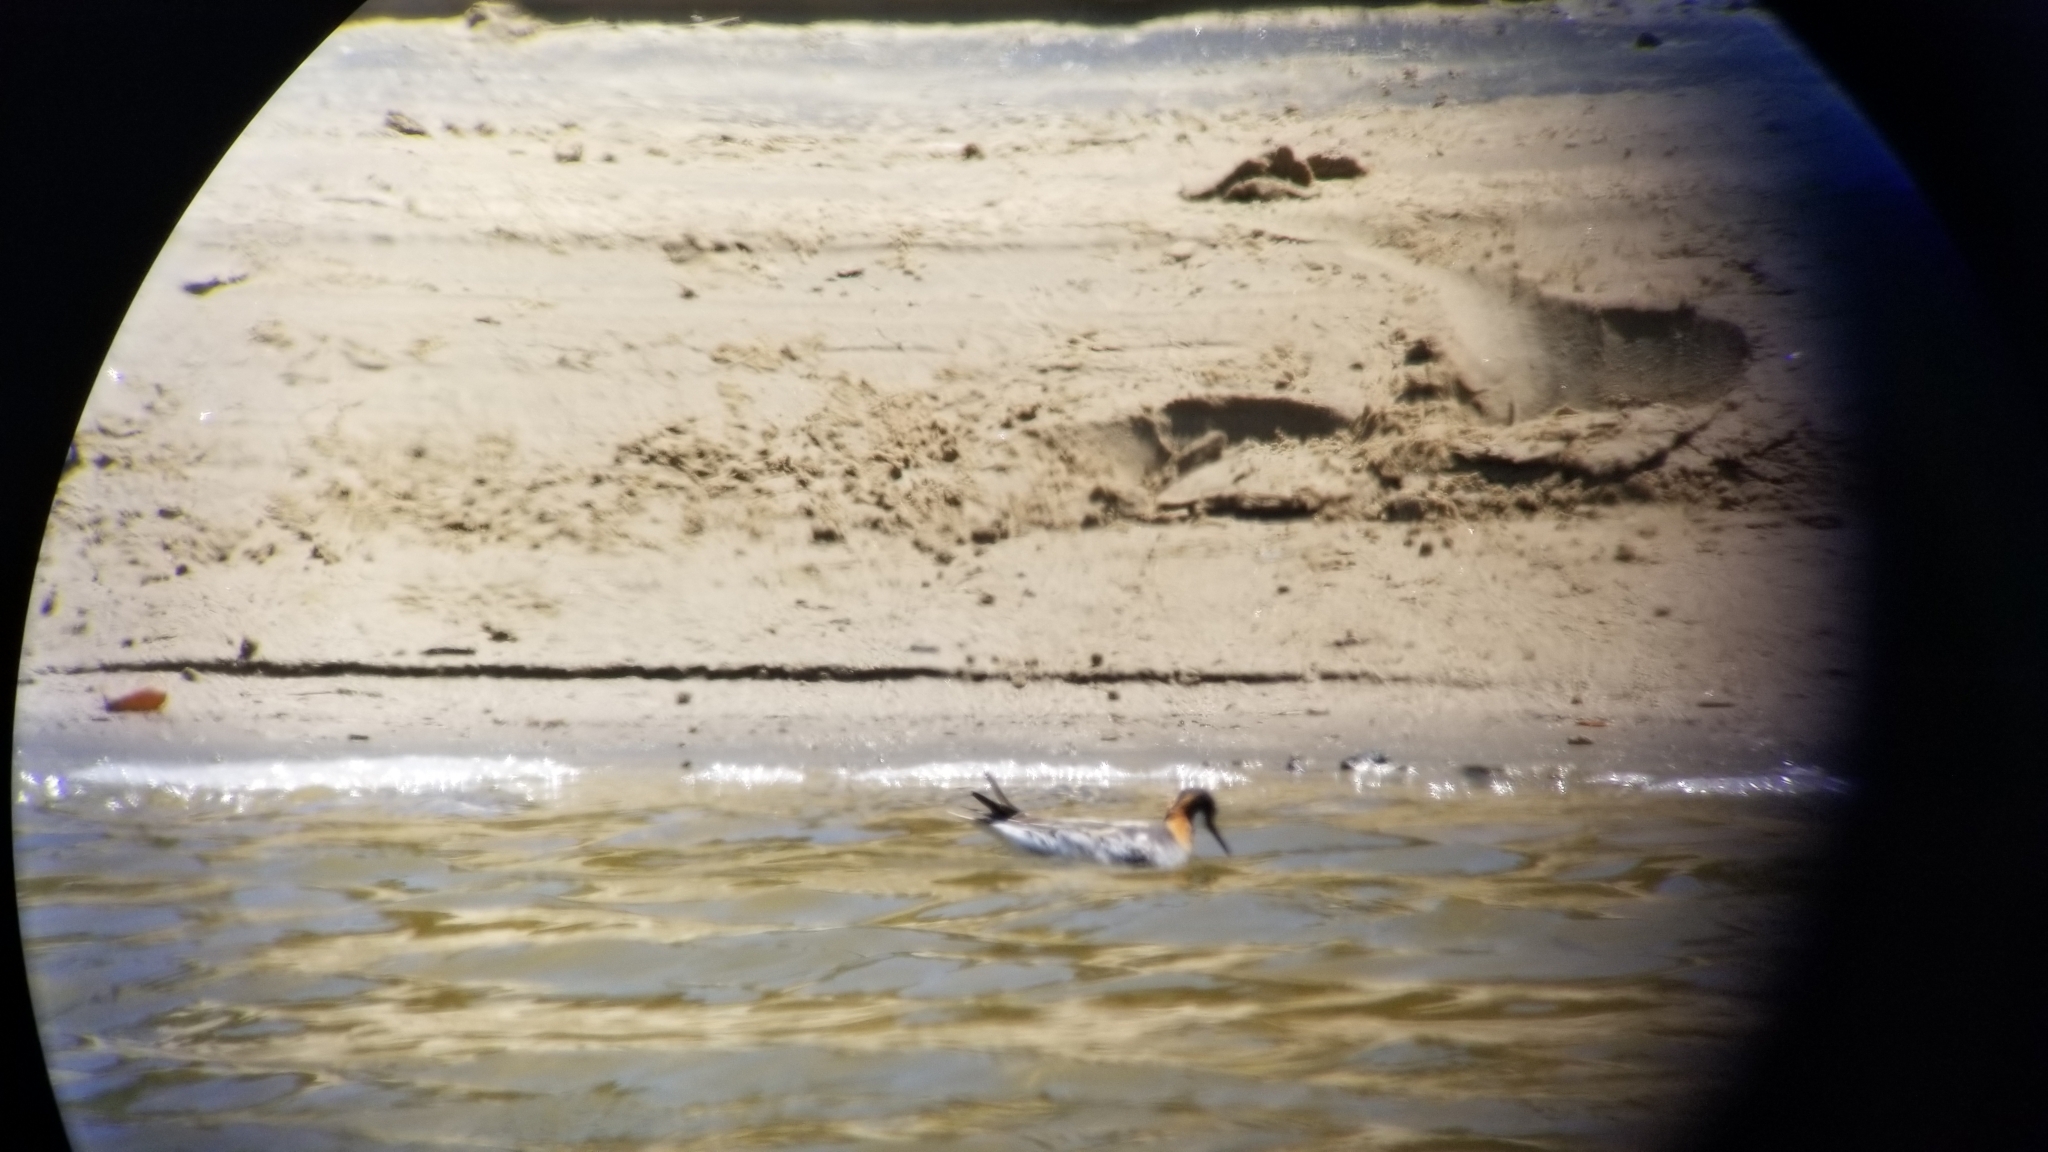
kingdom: Animalia
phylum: Chordata
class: Aves
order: Charadriiformes
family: Scolopacidae
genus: Phalaropus
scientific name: Phalaropus lobatus
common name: Red-necked phalarope
